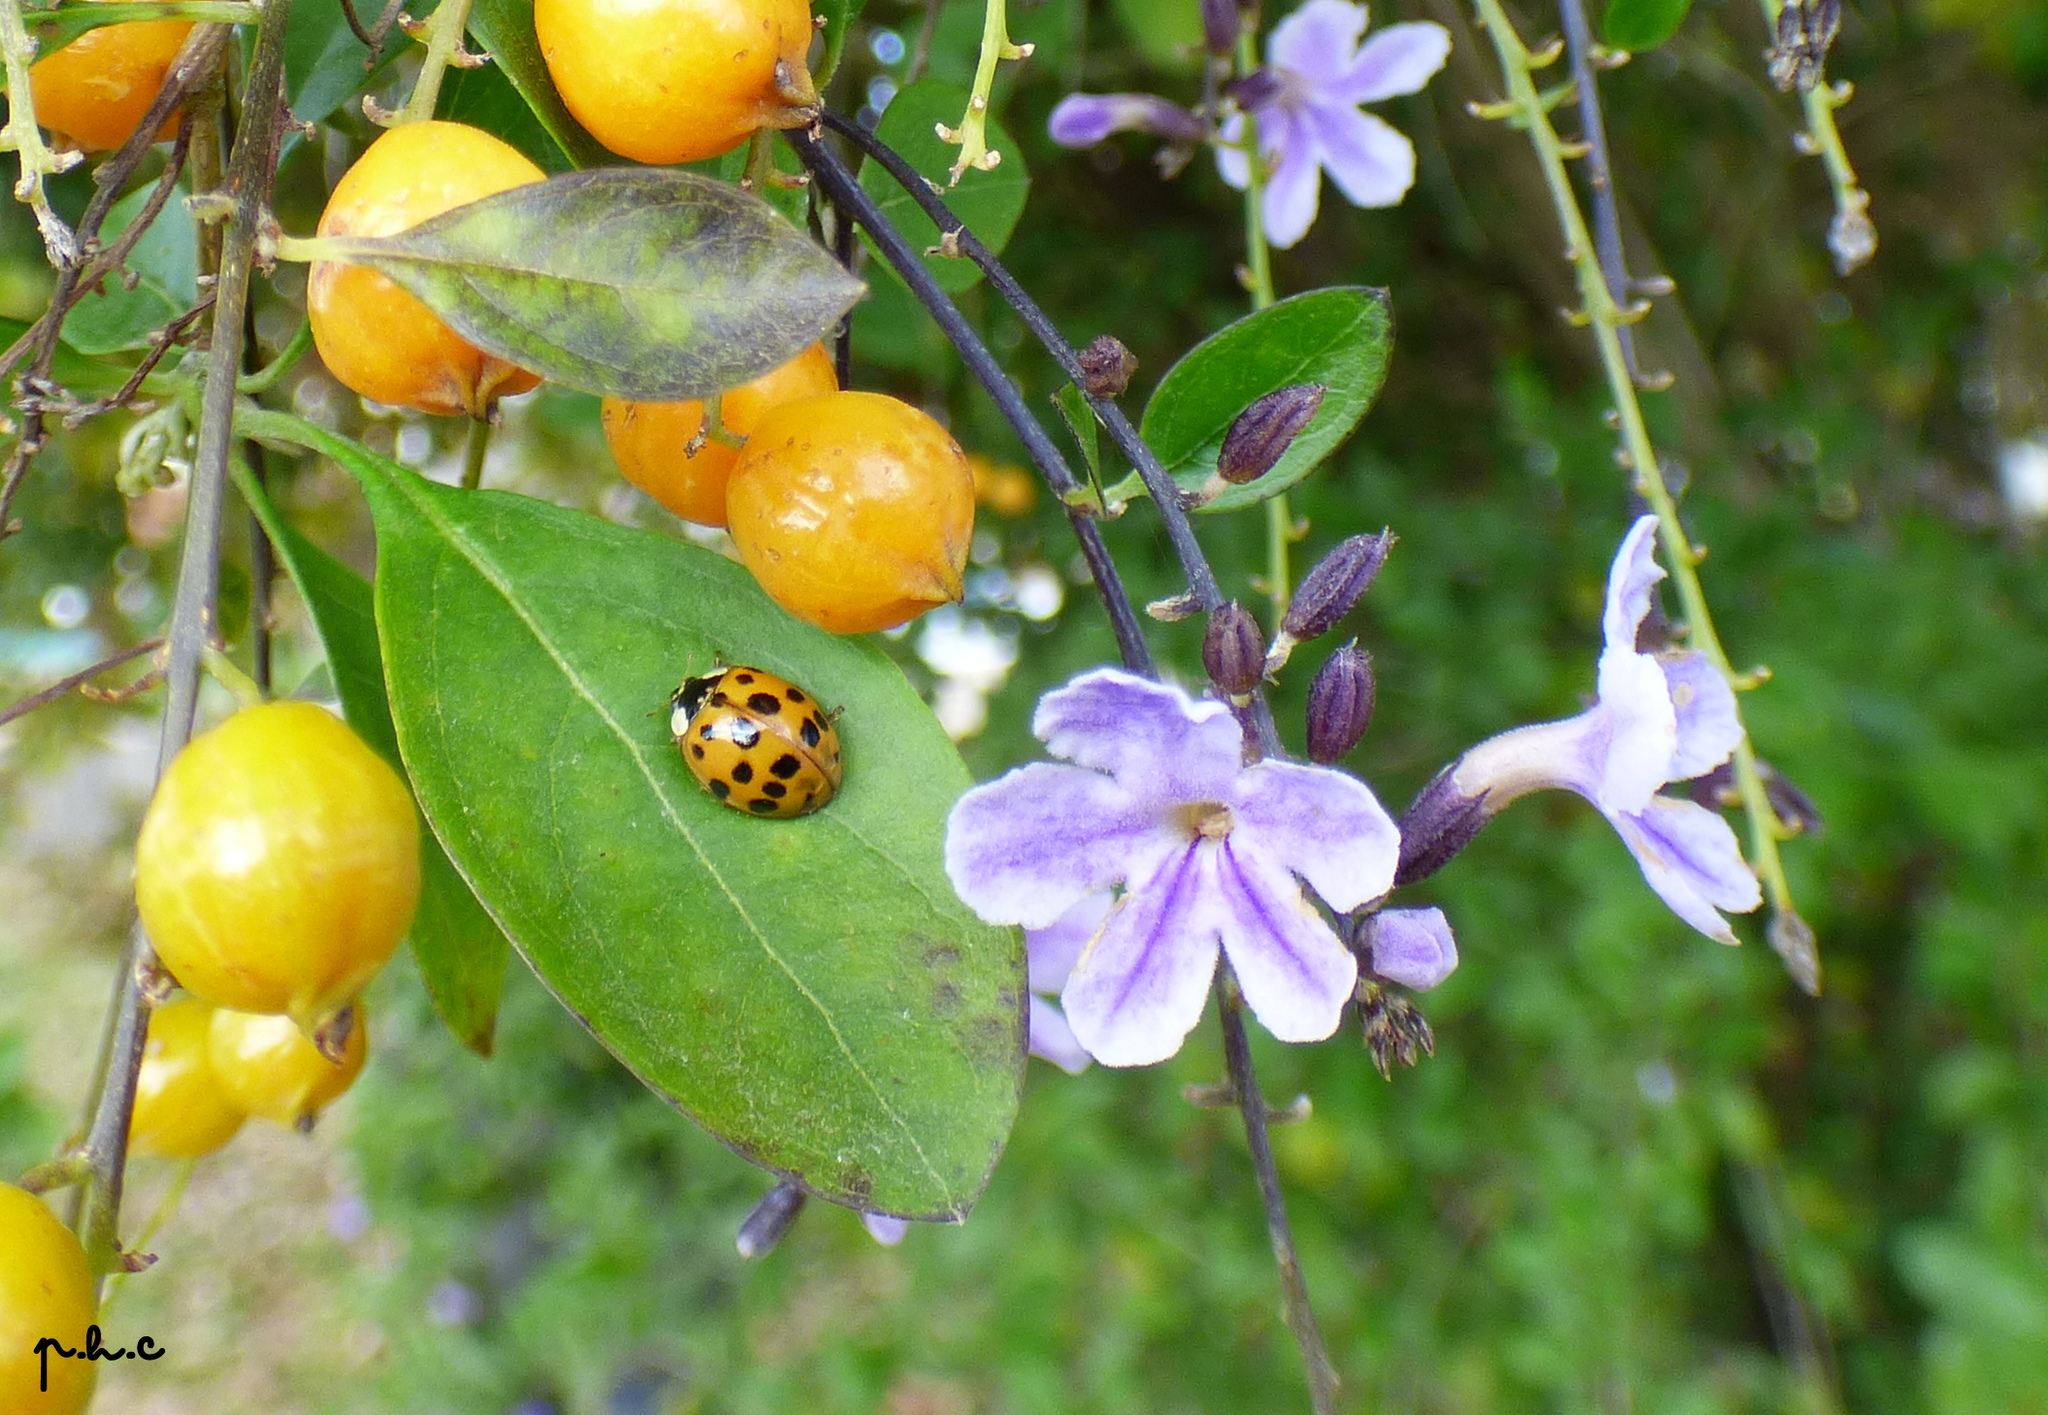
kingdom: Animalia
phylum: Arthropoda
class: Insecta
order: Coleoptera
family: Coccinellidae
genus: Harmonia
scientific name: Harmonia axyridis
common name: Harlequin ladybird
